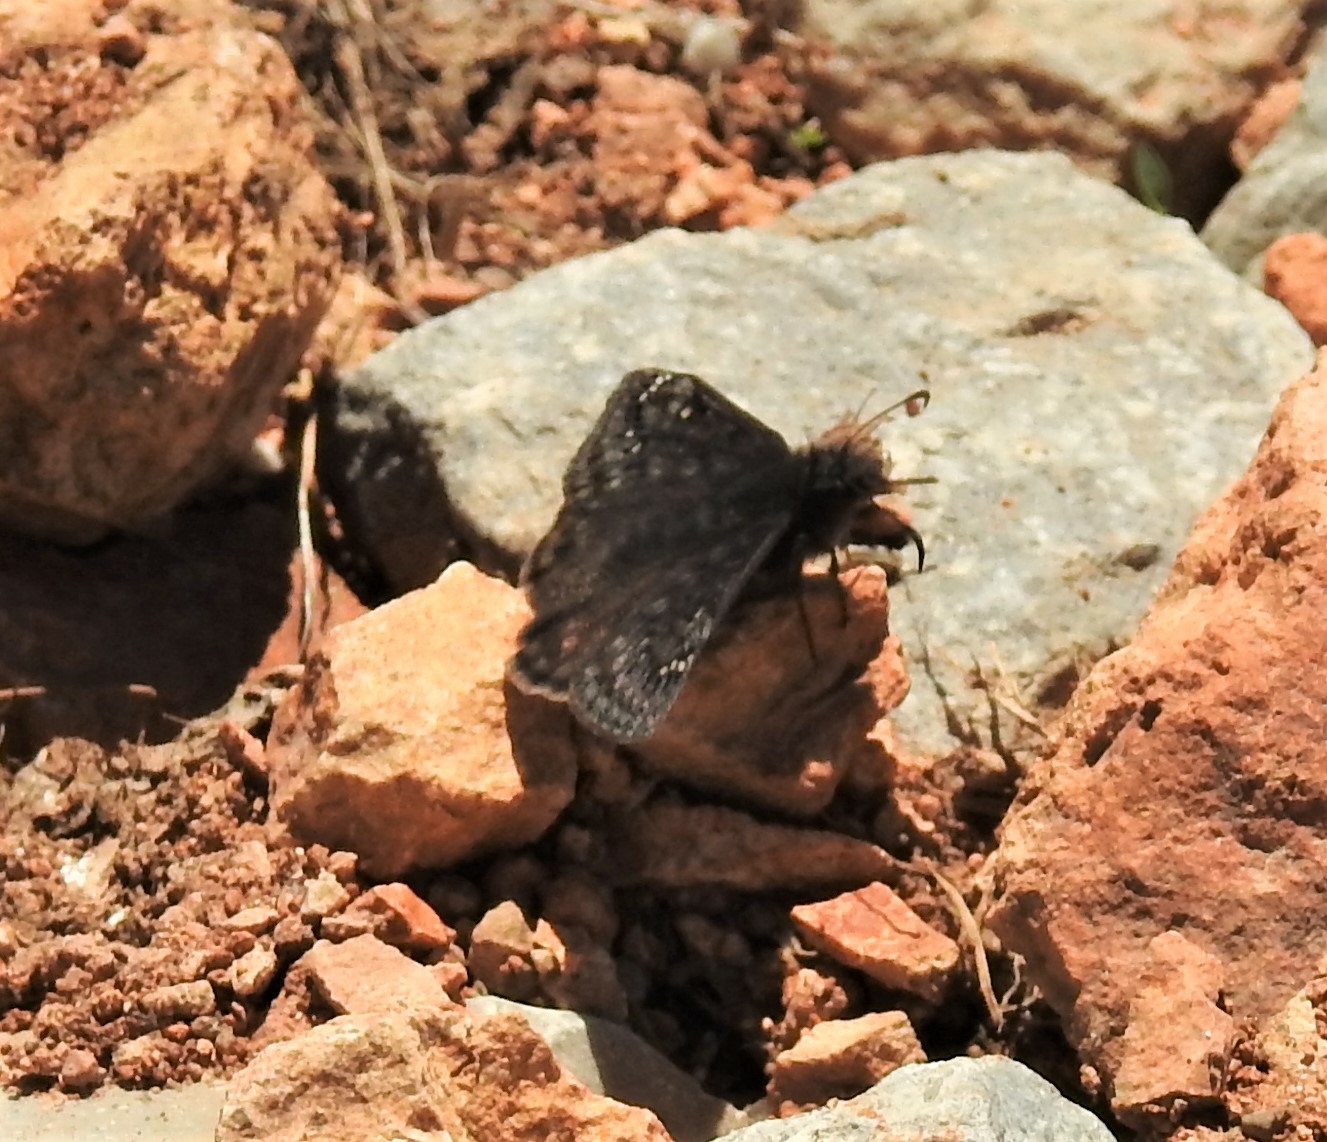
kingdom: Animalia
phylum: Arthropoda
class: Insecta
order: Lepidoptera
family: Hesperiidae
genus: Erynnis
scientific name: Erynnis juvenalis
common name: Juvenal's duskywing
